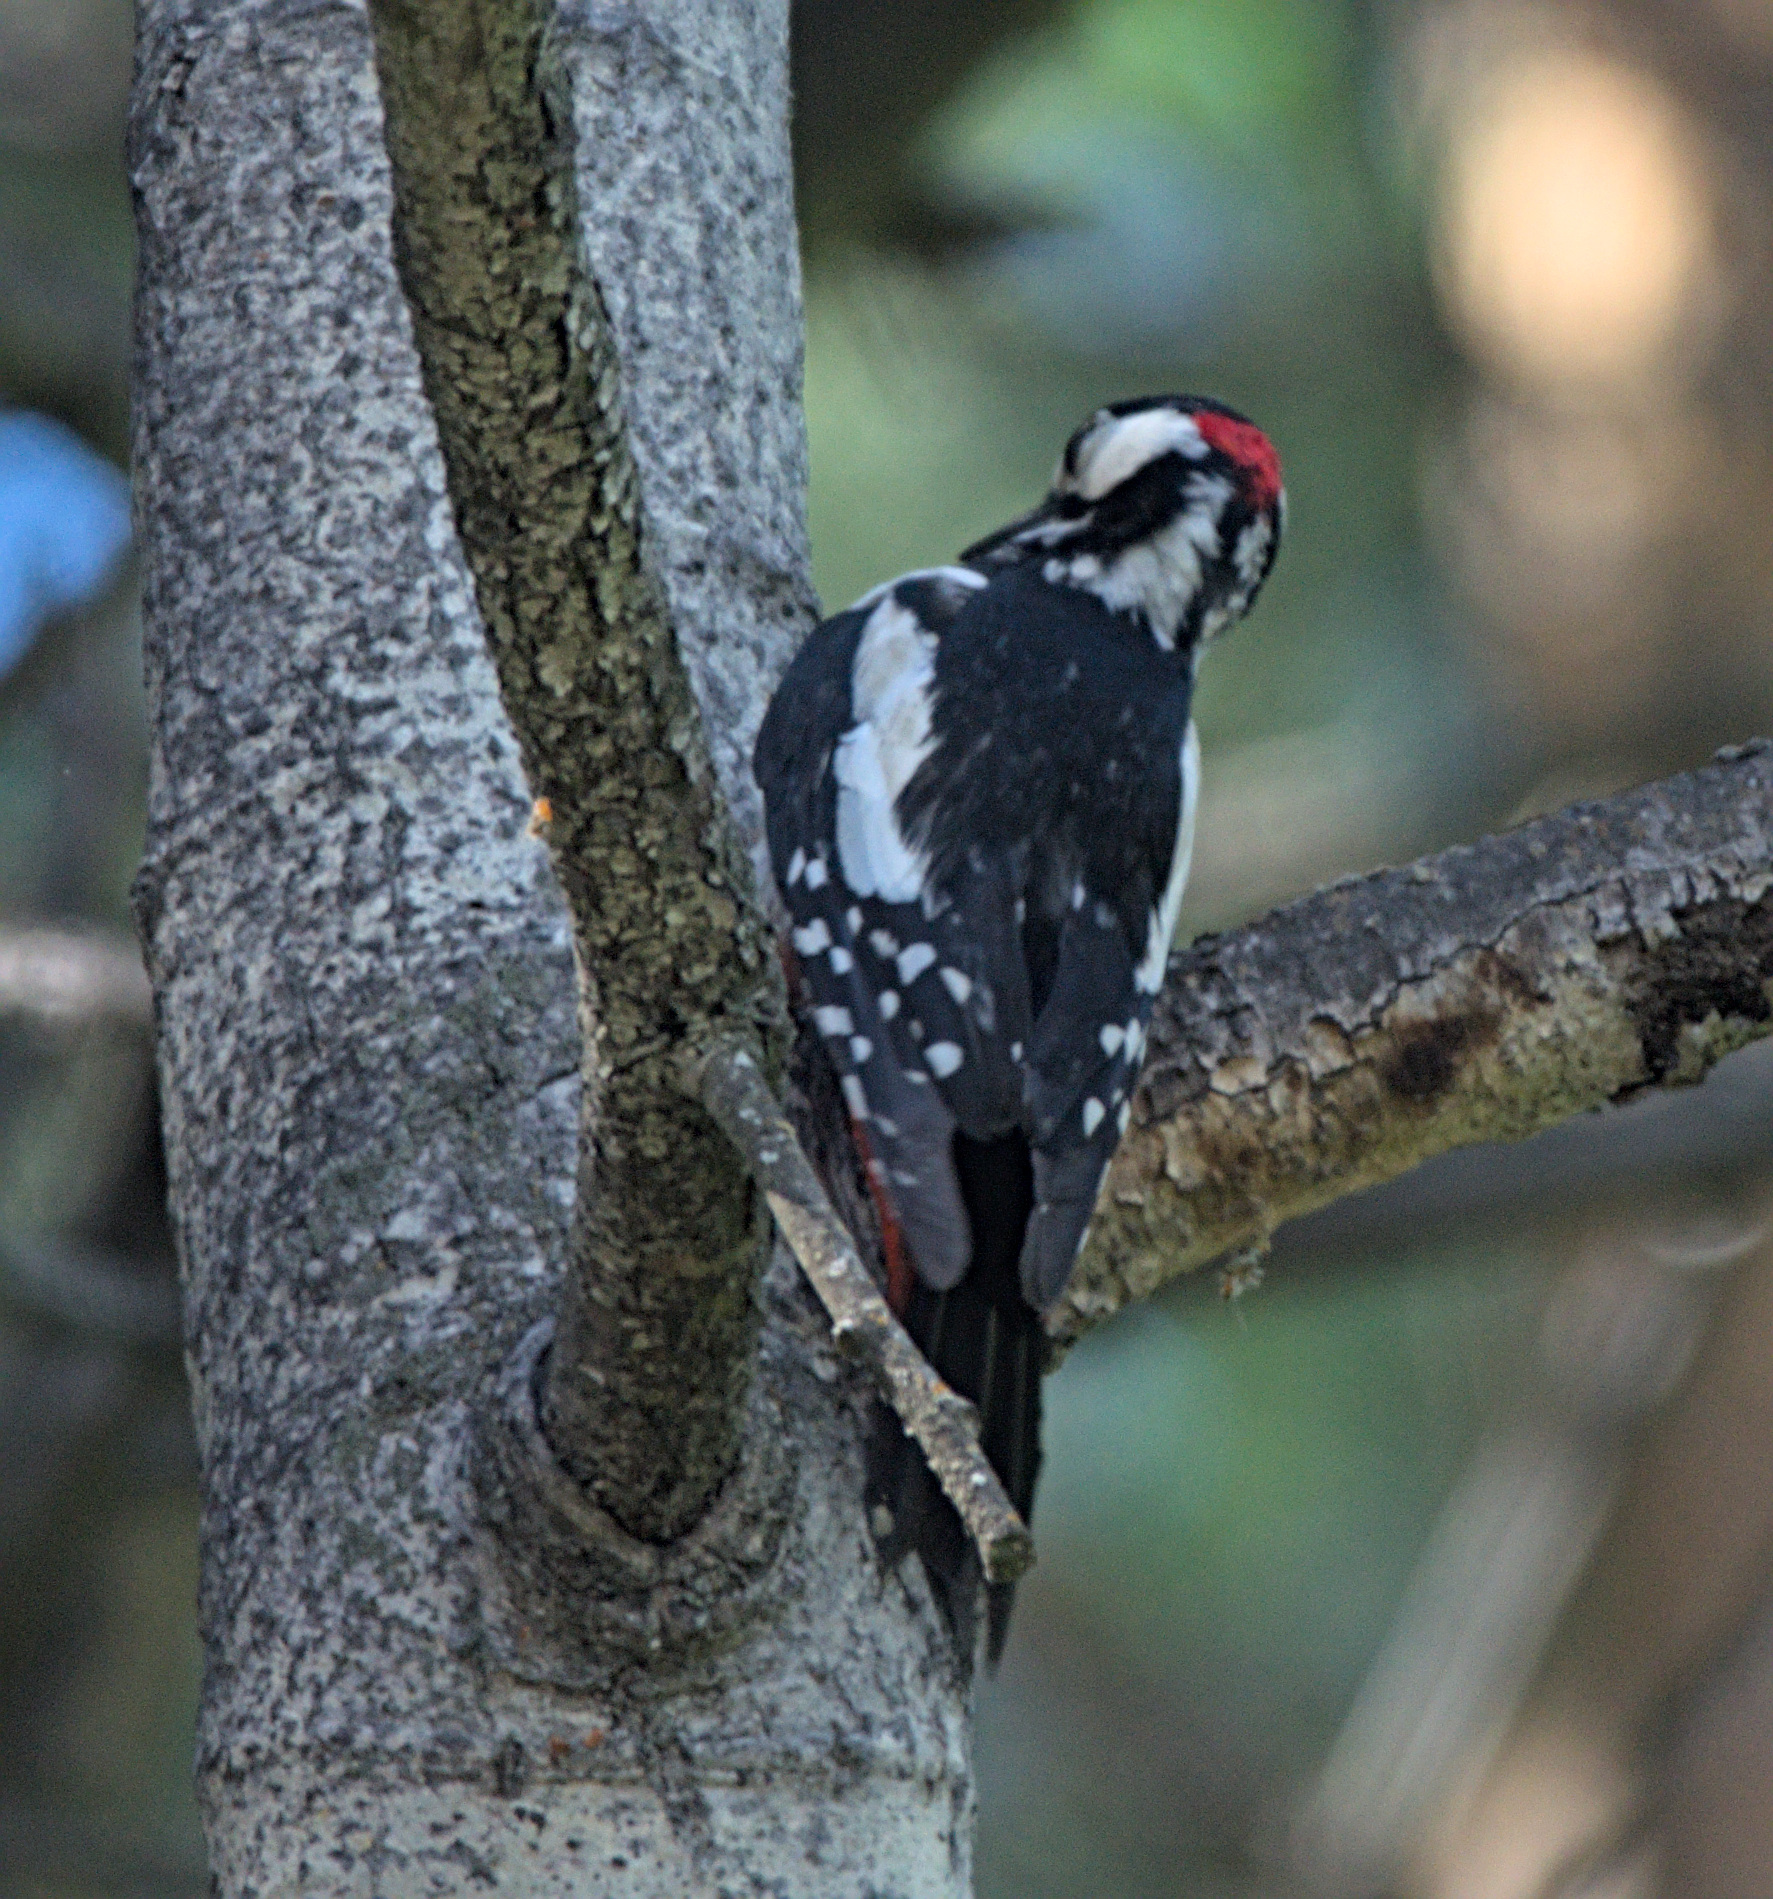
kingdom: Animalia
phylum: Chordata
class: Aves
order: Piciformes
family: Picidae
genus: Dendrocopos
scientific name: Dendrocopos major
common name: Great spotted woodpecker
